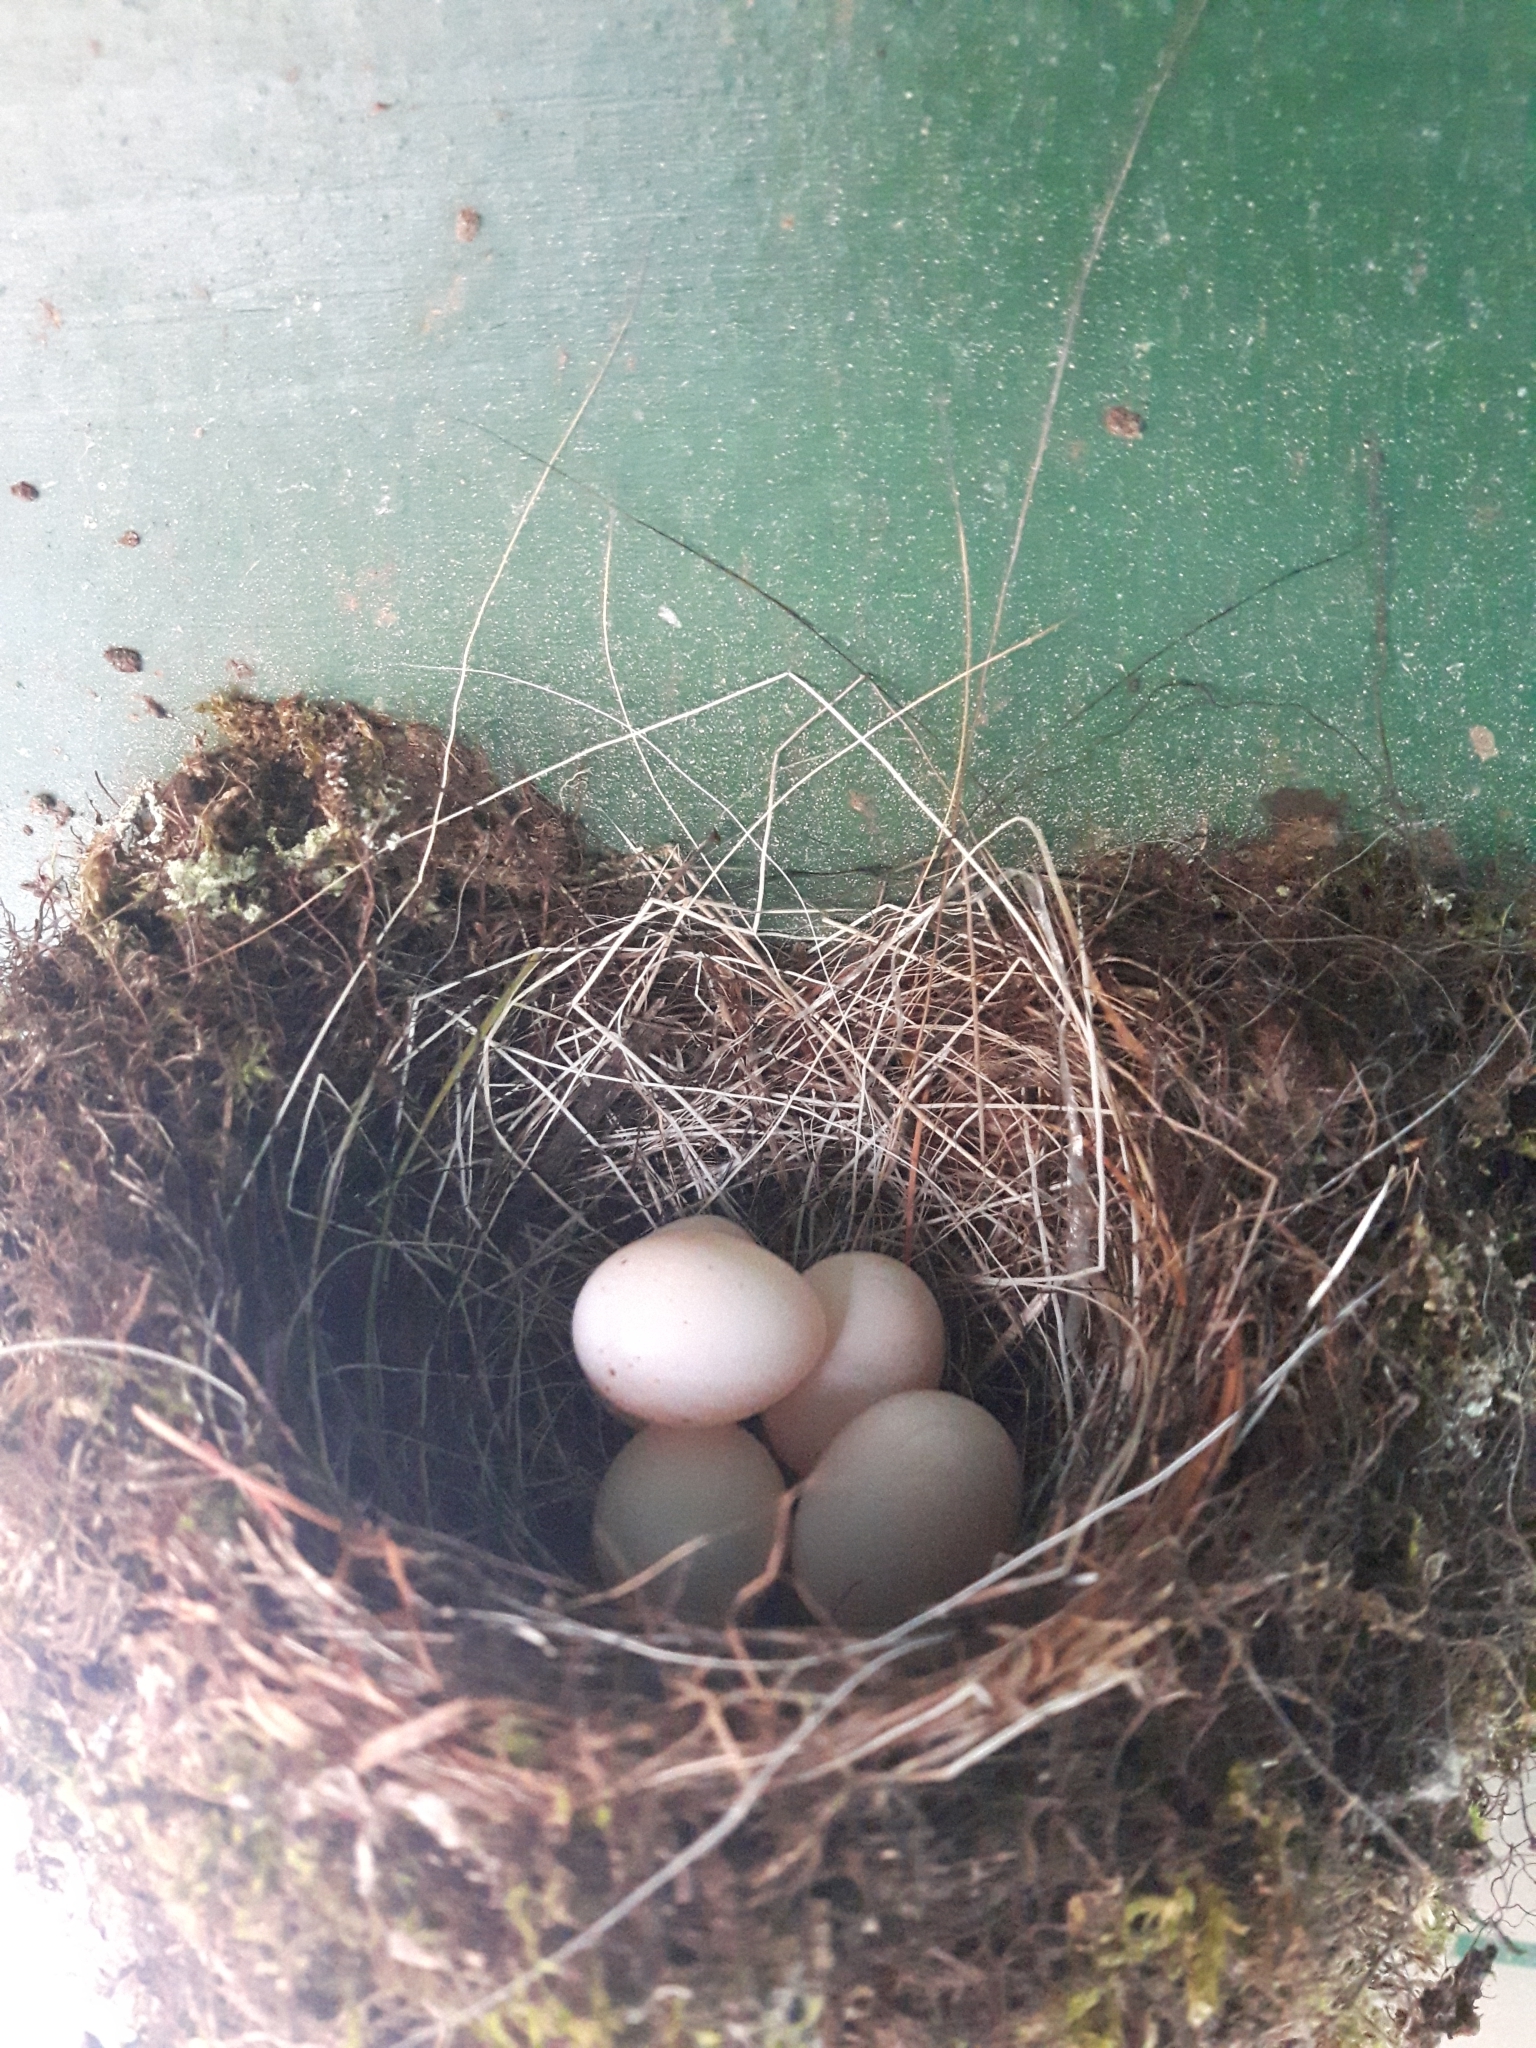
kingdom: Animalia
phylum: Chordata
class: Aves
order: Passeriformes
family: Tyrannidae
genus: Sayornis
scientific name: Sayornis phoebe
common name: Eastern phoebe
